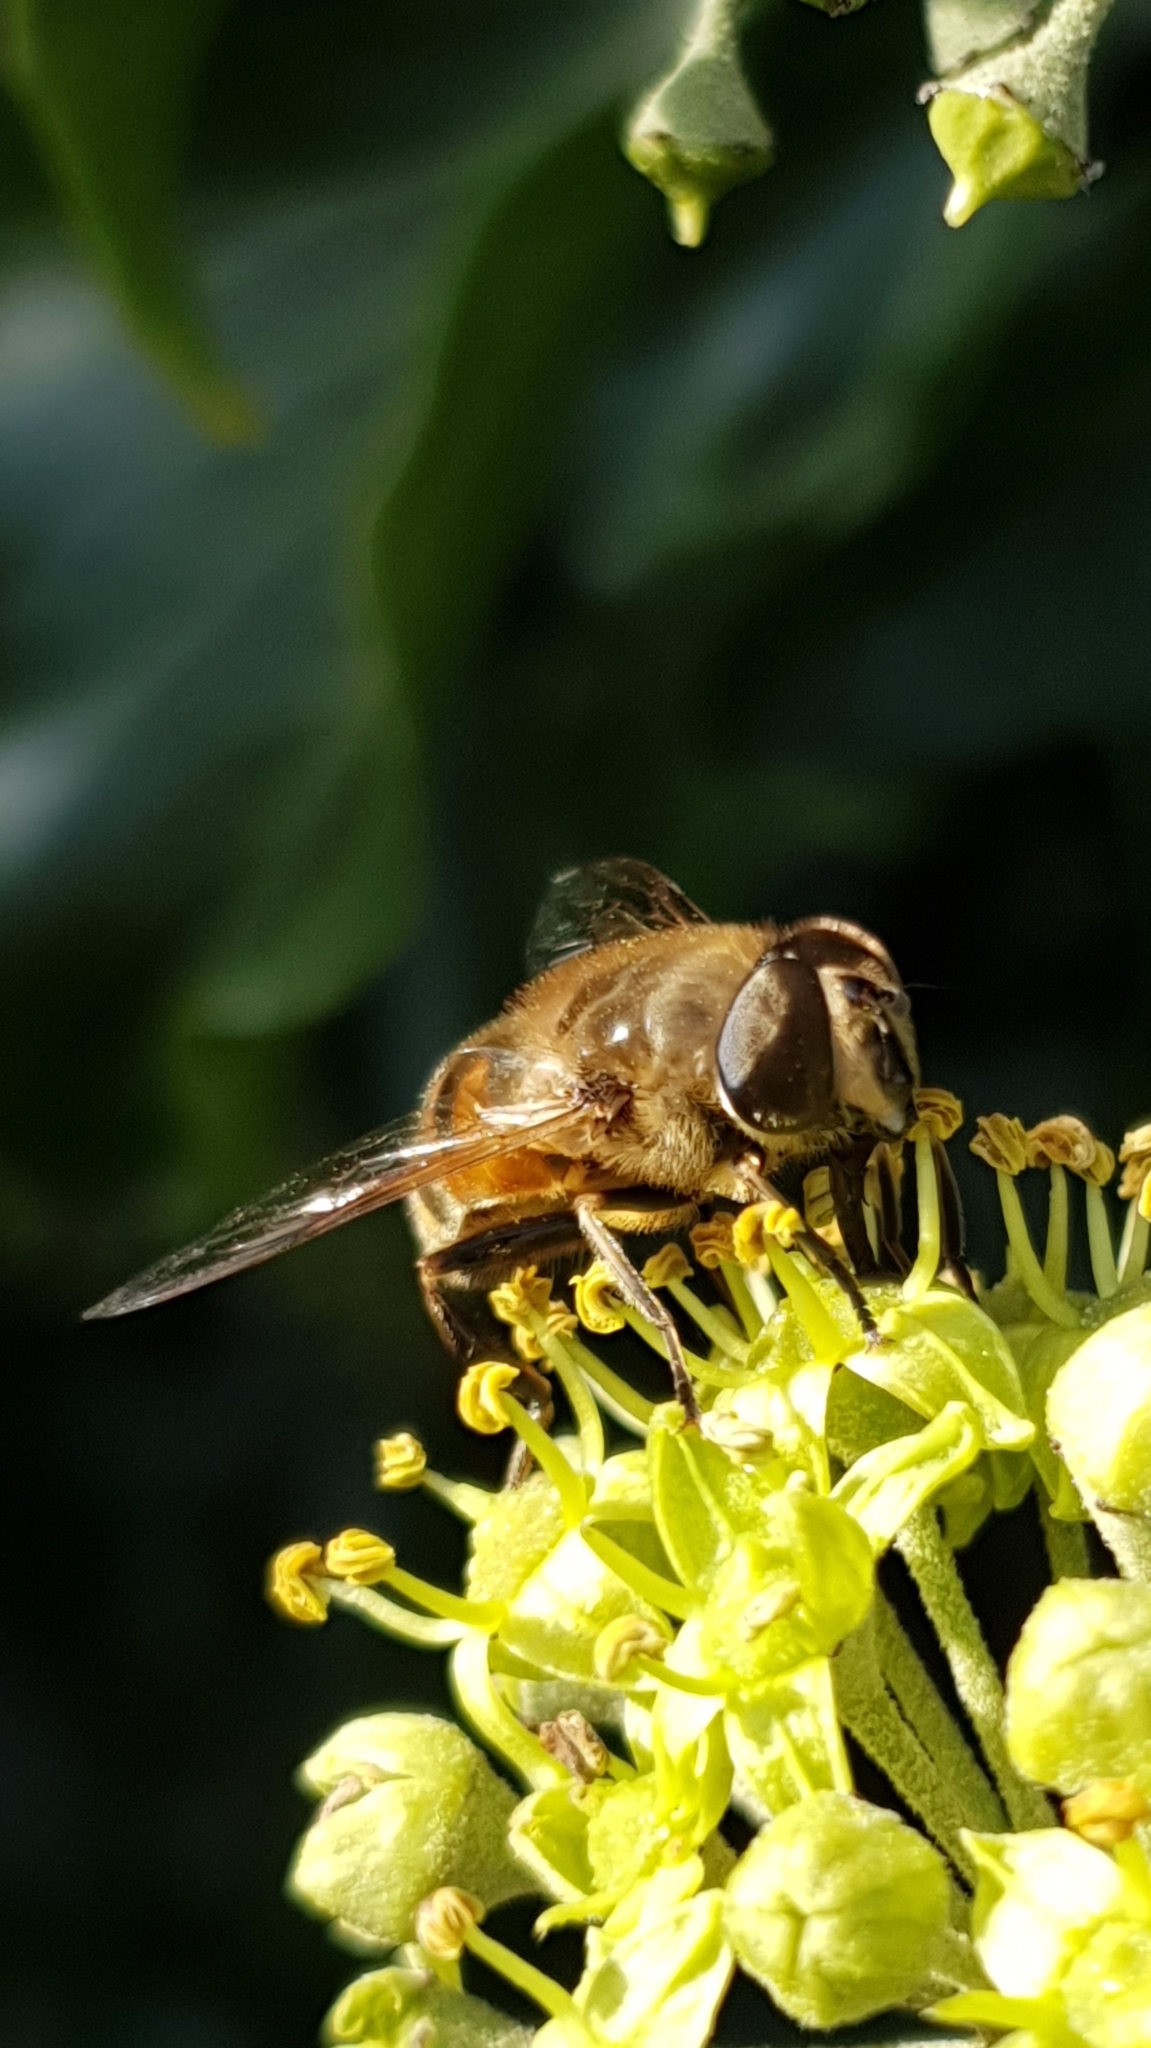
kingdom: Animalia
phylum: Arthropoda
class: Insecta
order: Diptera
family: Syrphidae
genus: Eristalis
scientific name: Eristalis tenax
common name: Drone fly
